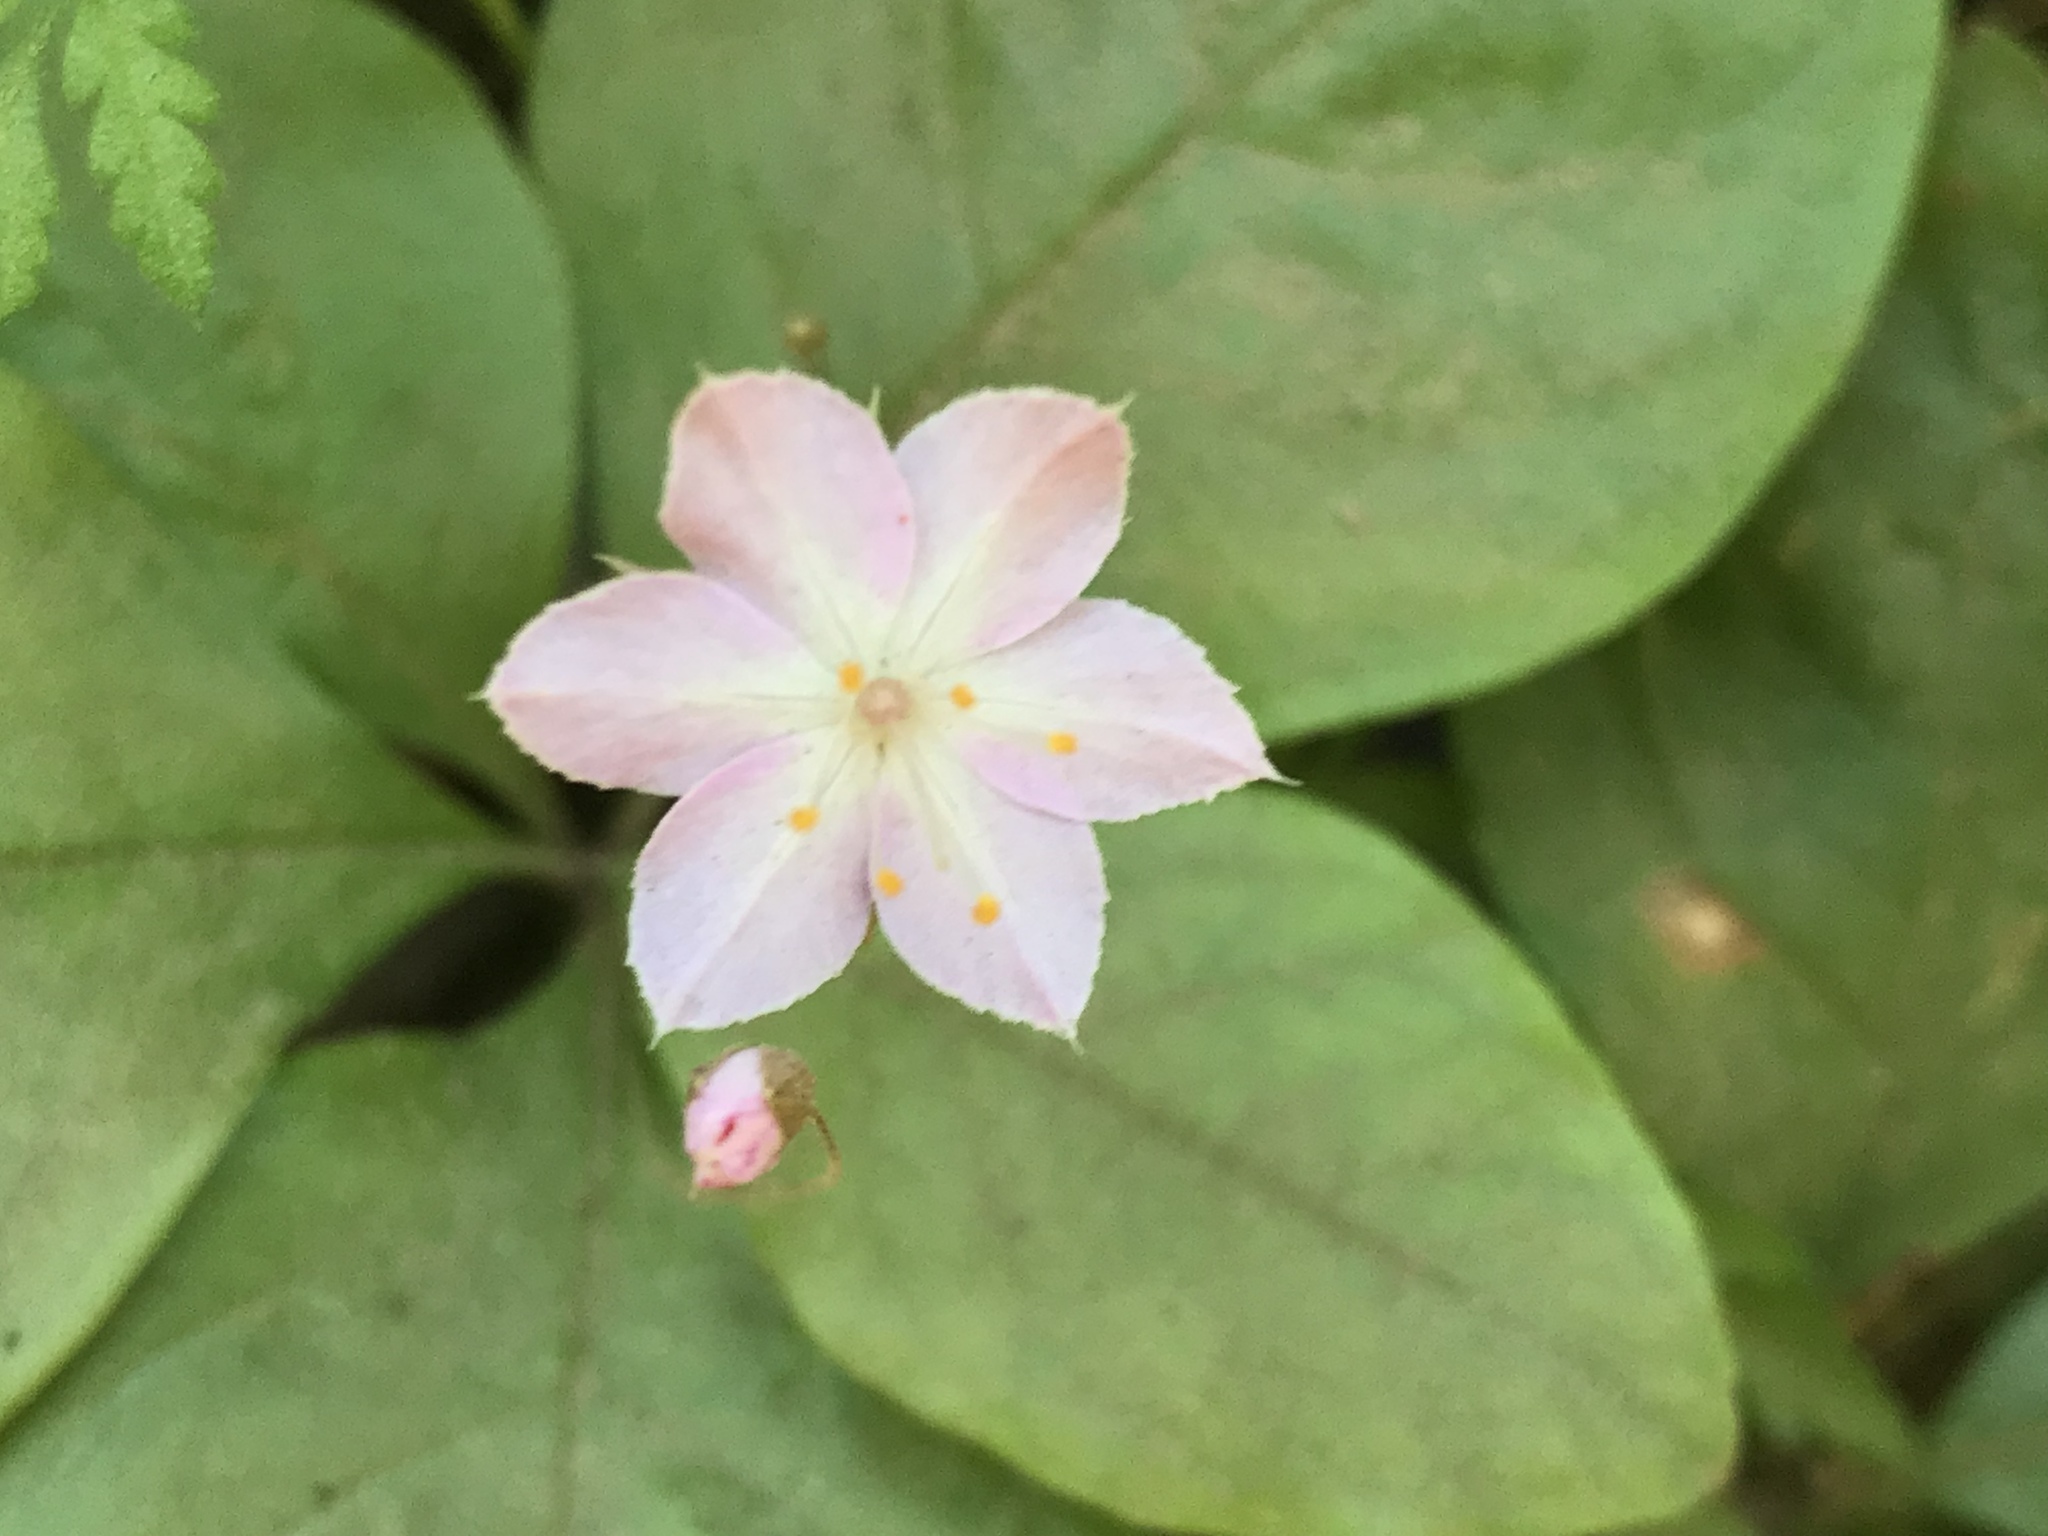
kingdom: Plantae
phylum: Tracheophyta
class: Magnoliopsida
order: Ericales
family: Primulaceae
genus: Lysimachia
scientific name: Lysimachia latifolia
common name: Pacific starflower
